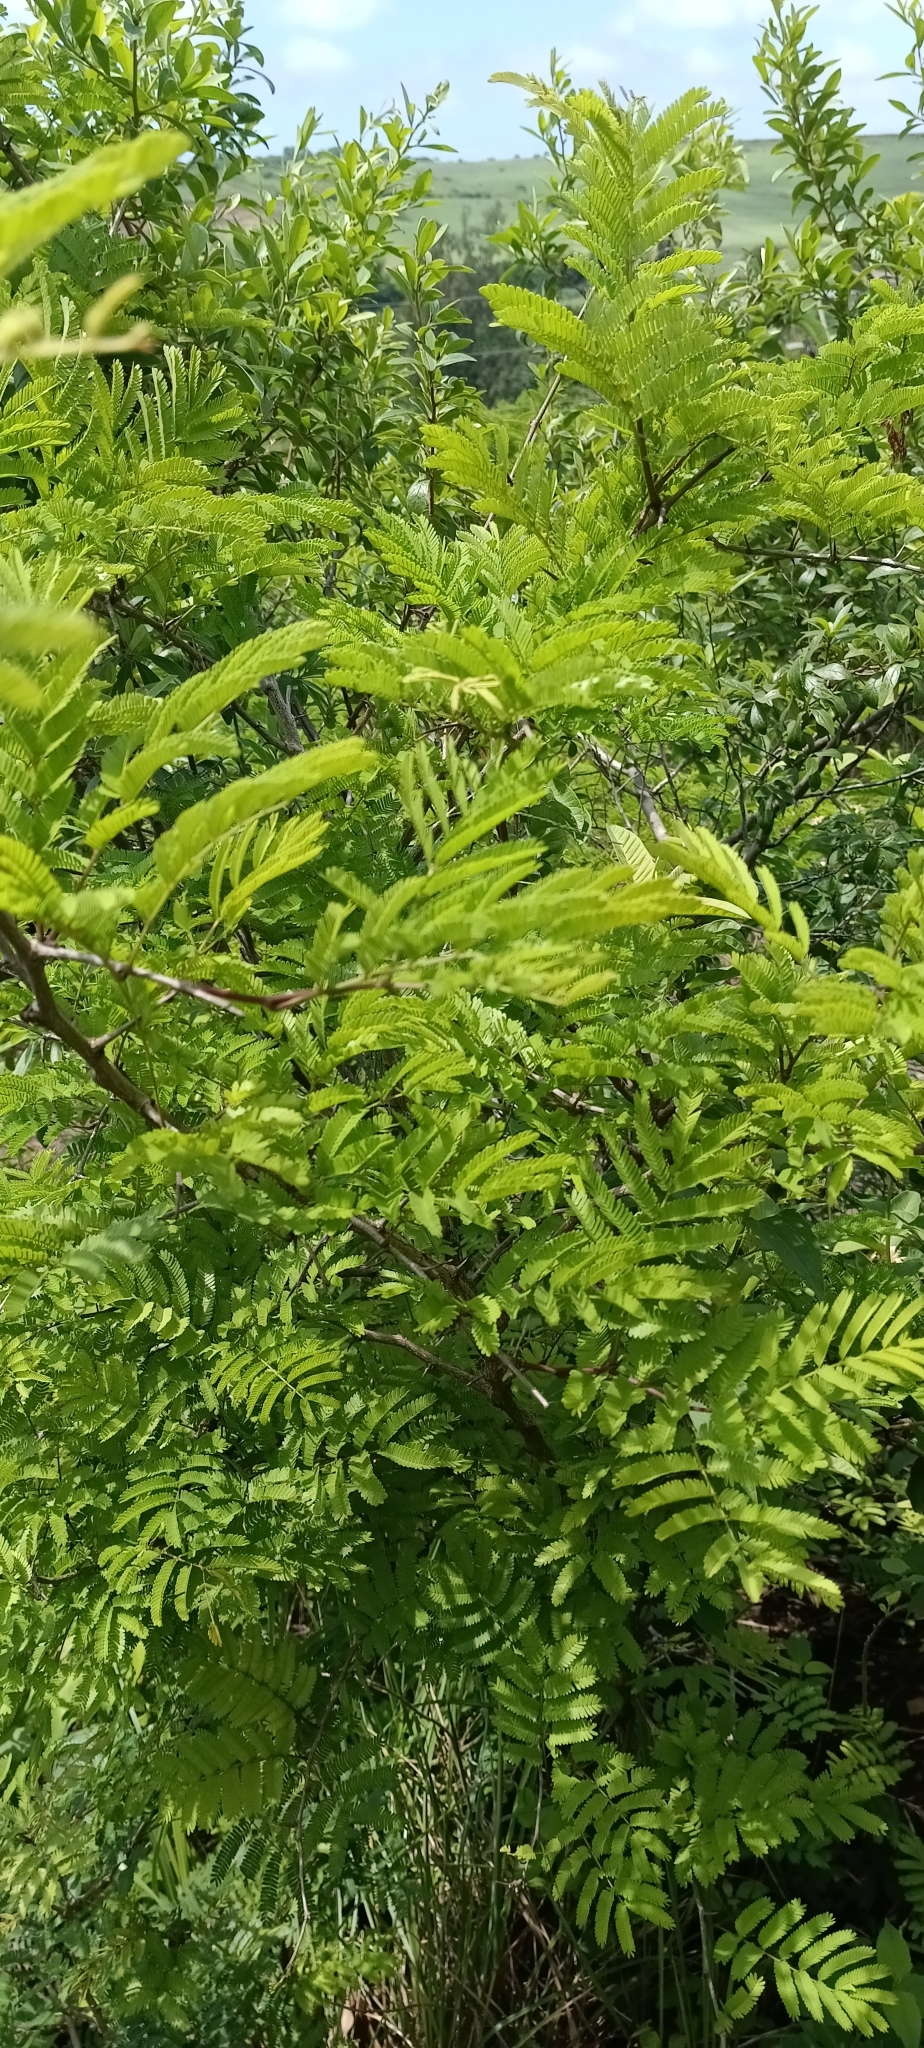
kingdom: Plantae
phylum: Tracheophyta
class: Magnoliopsida
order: Fabales
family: Fabaceae
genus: Dichrostachys
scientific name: Dichrostachys cinerea
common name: Sicklebush
